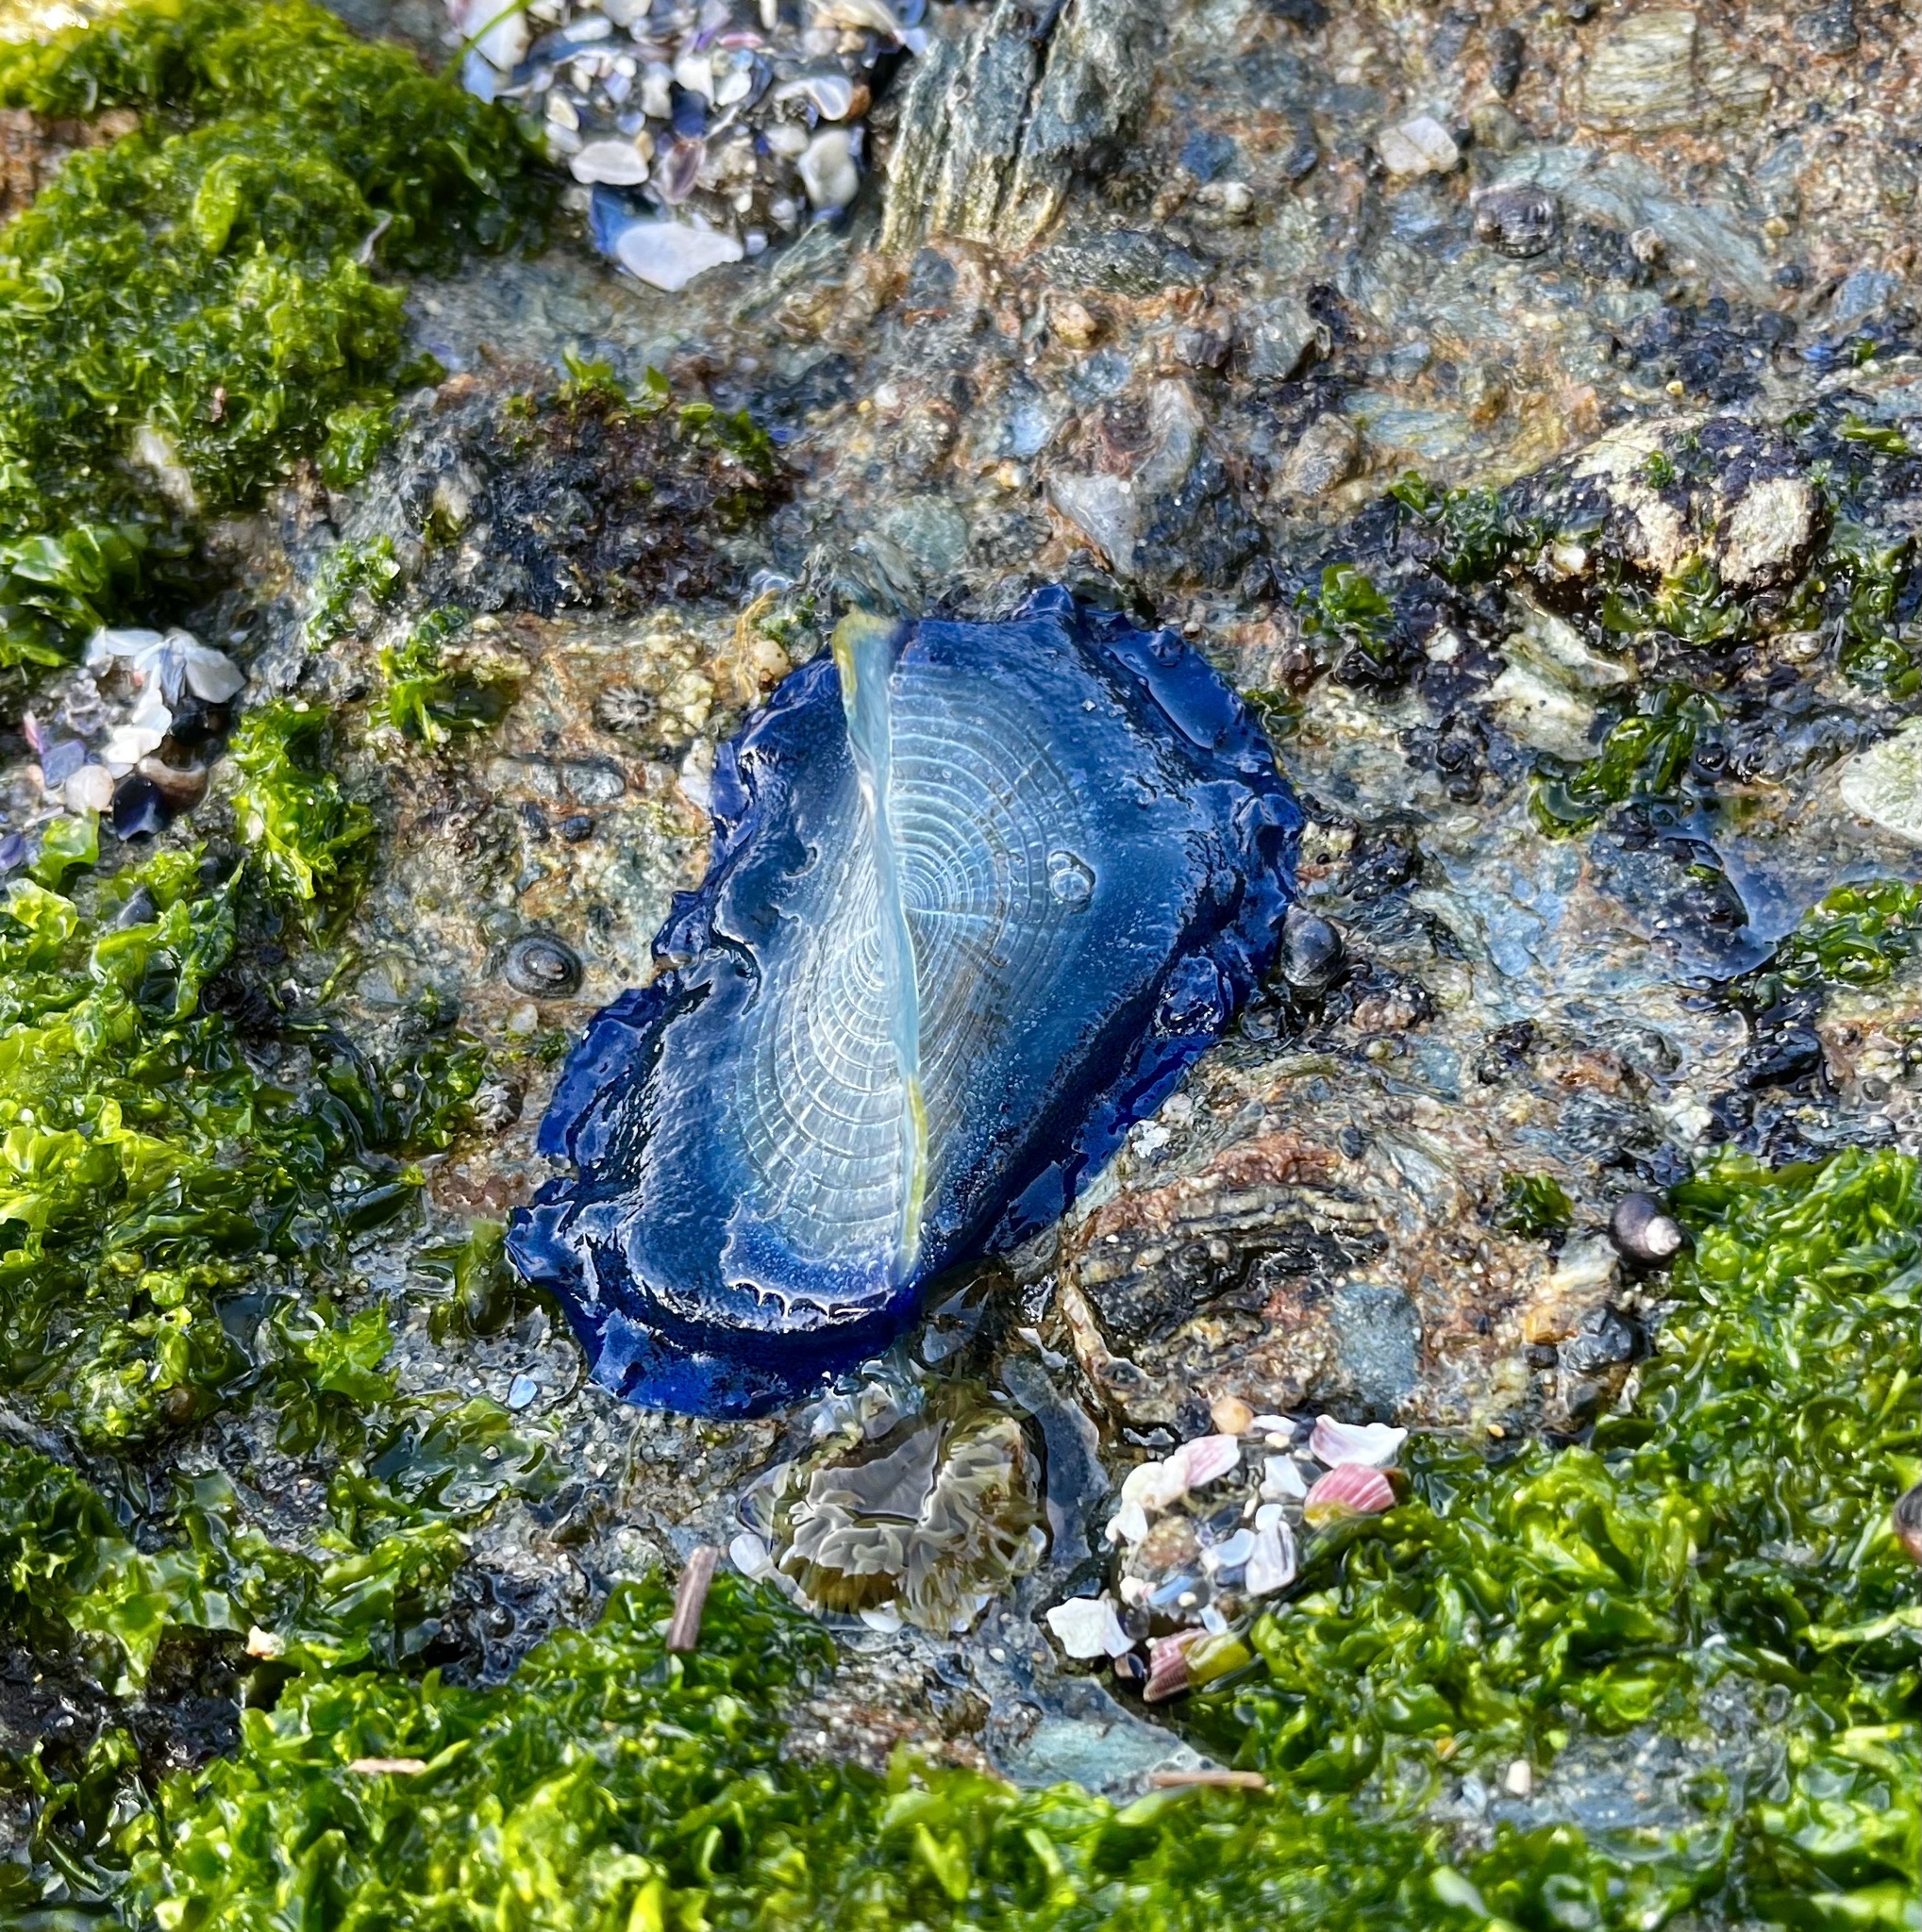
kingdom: Animalia
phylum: Cnidaria
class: Hydrozoa
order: Anthoathecata
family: Porpitidae
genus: Velella
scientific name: Velella velella
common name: By-the-wind-sailor
